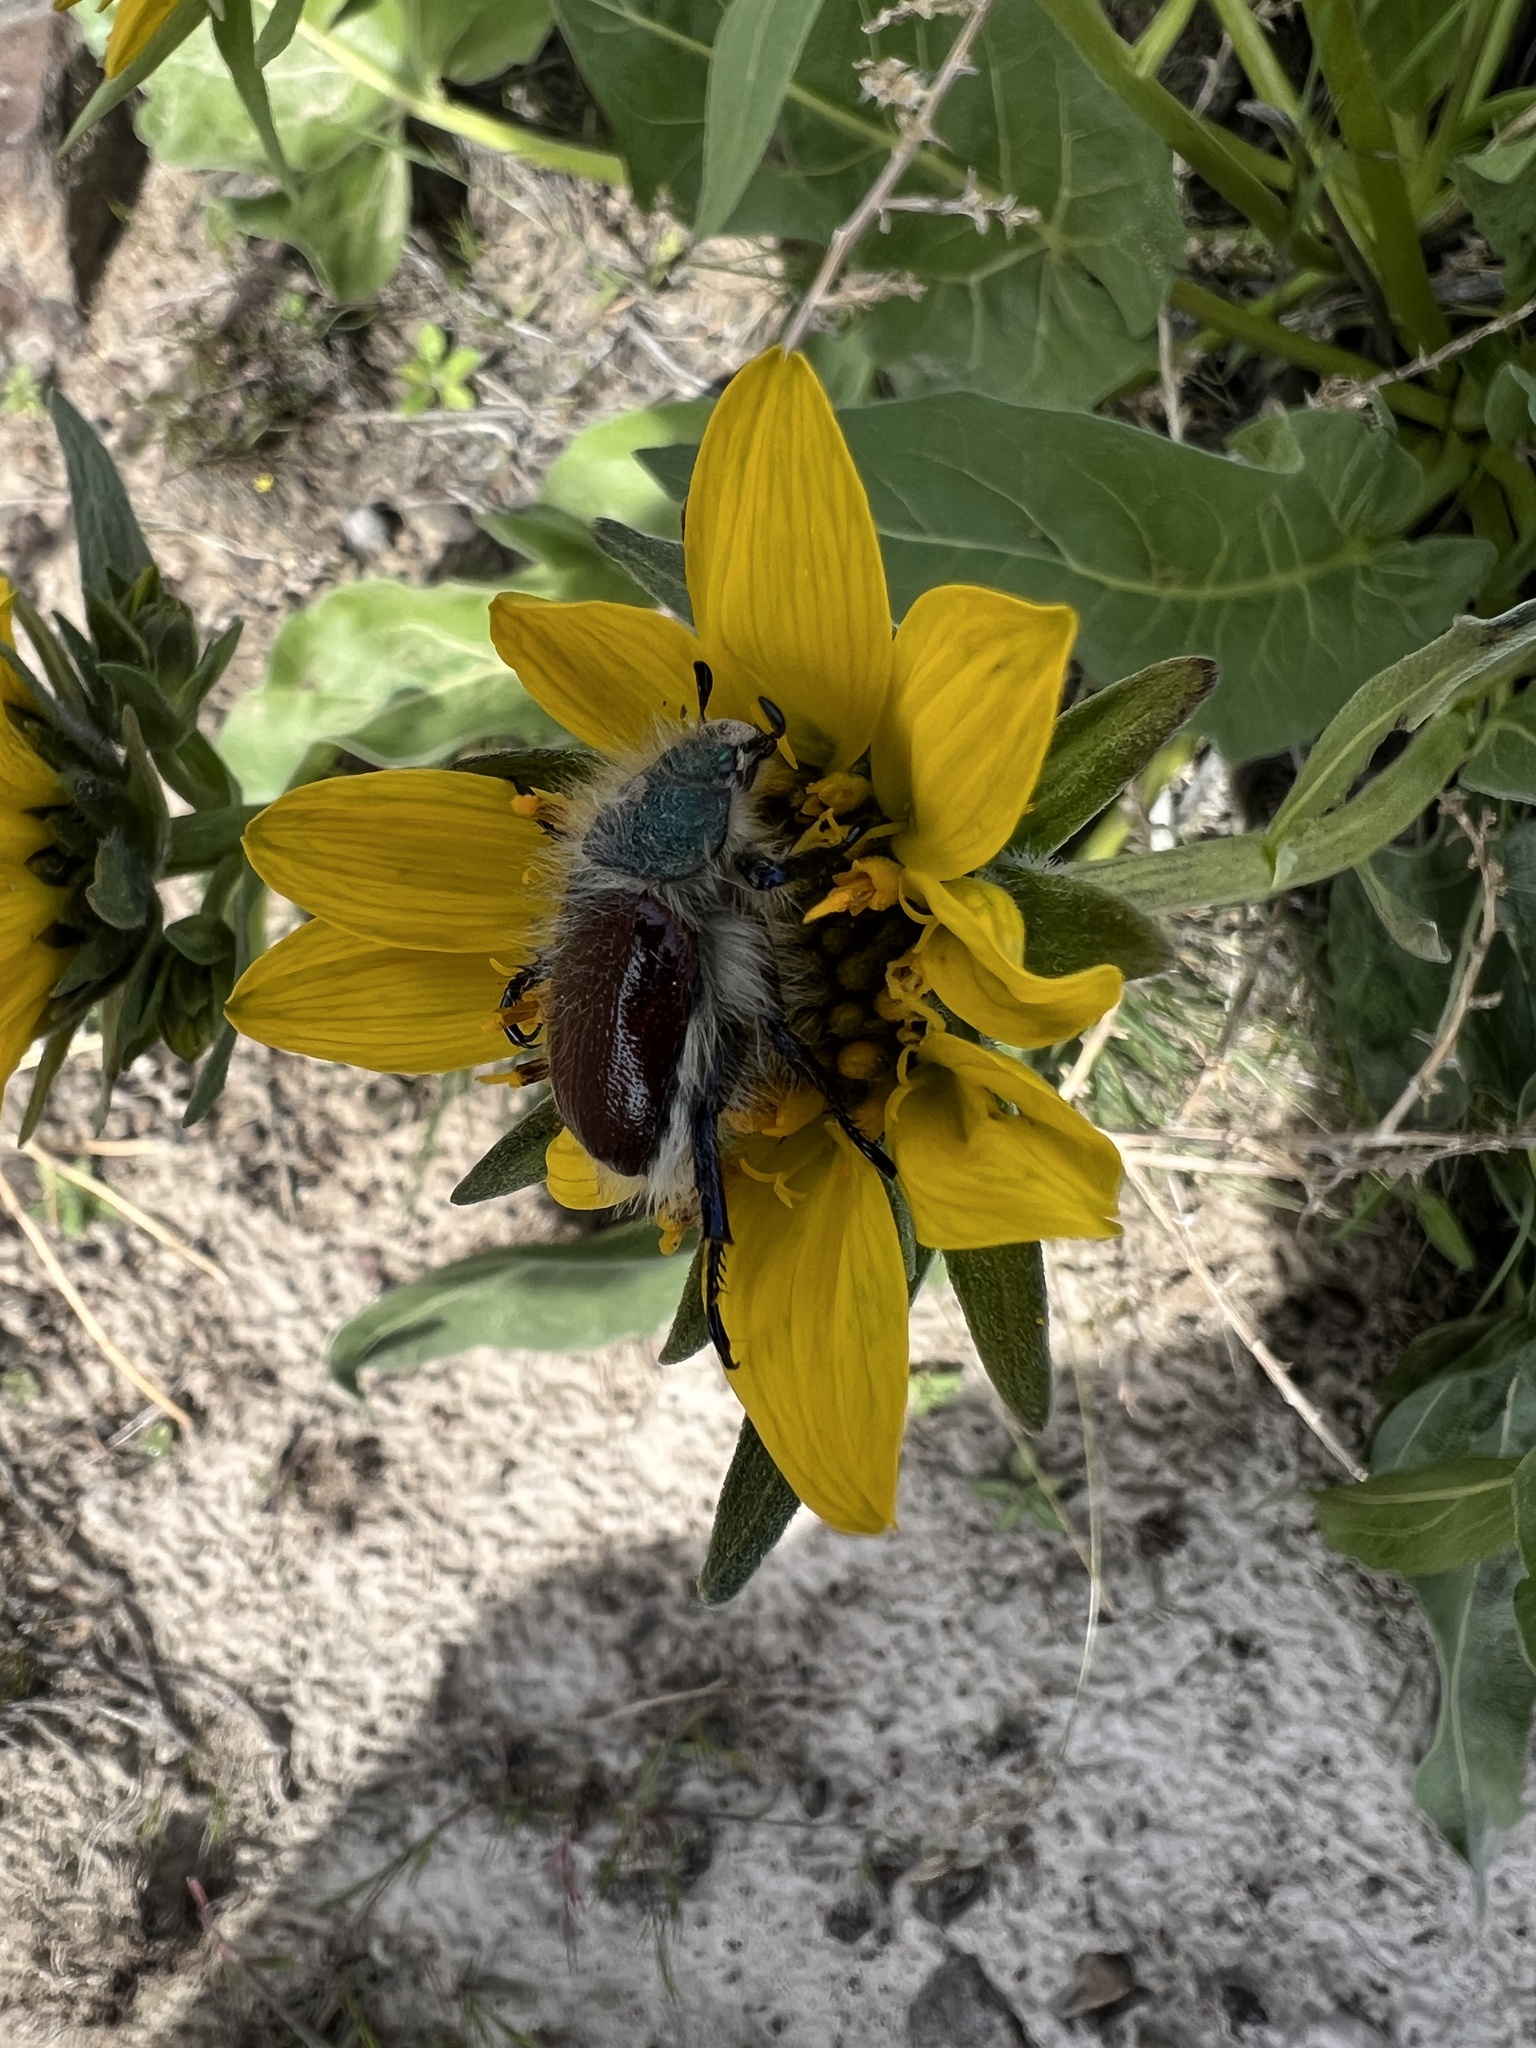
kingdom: Animalia
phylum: Arthropoda
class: Insecta
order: Coleoptera
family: Scarabaeidae
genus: Paracotalpa
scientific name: Paracotalpa granicollis
